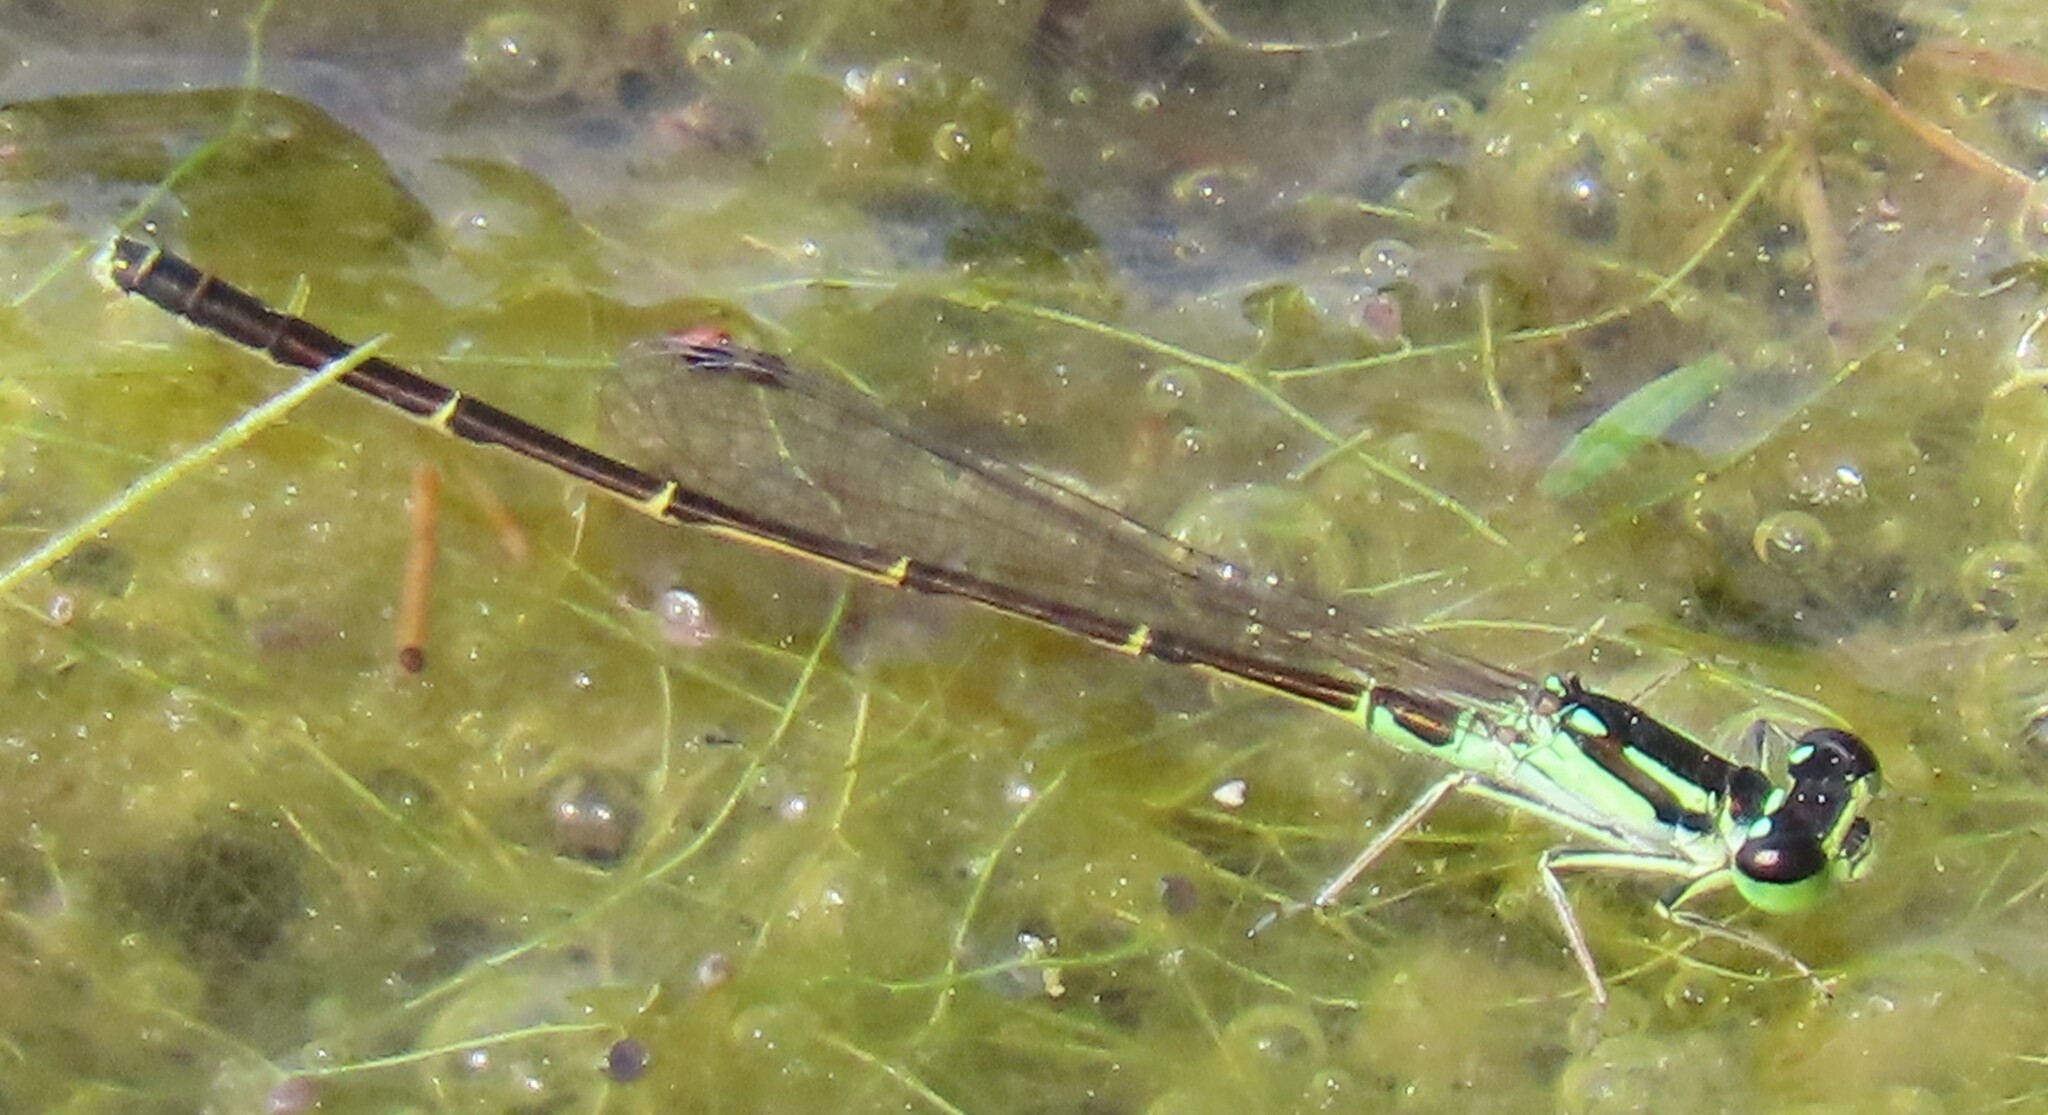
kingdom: Animalia
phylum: Arthropoda
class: Insecta
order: Odonata
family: Coenagrionidae
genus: Ischnura
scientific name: Ischnura posita
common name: Fragile forktail
